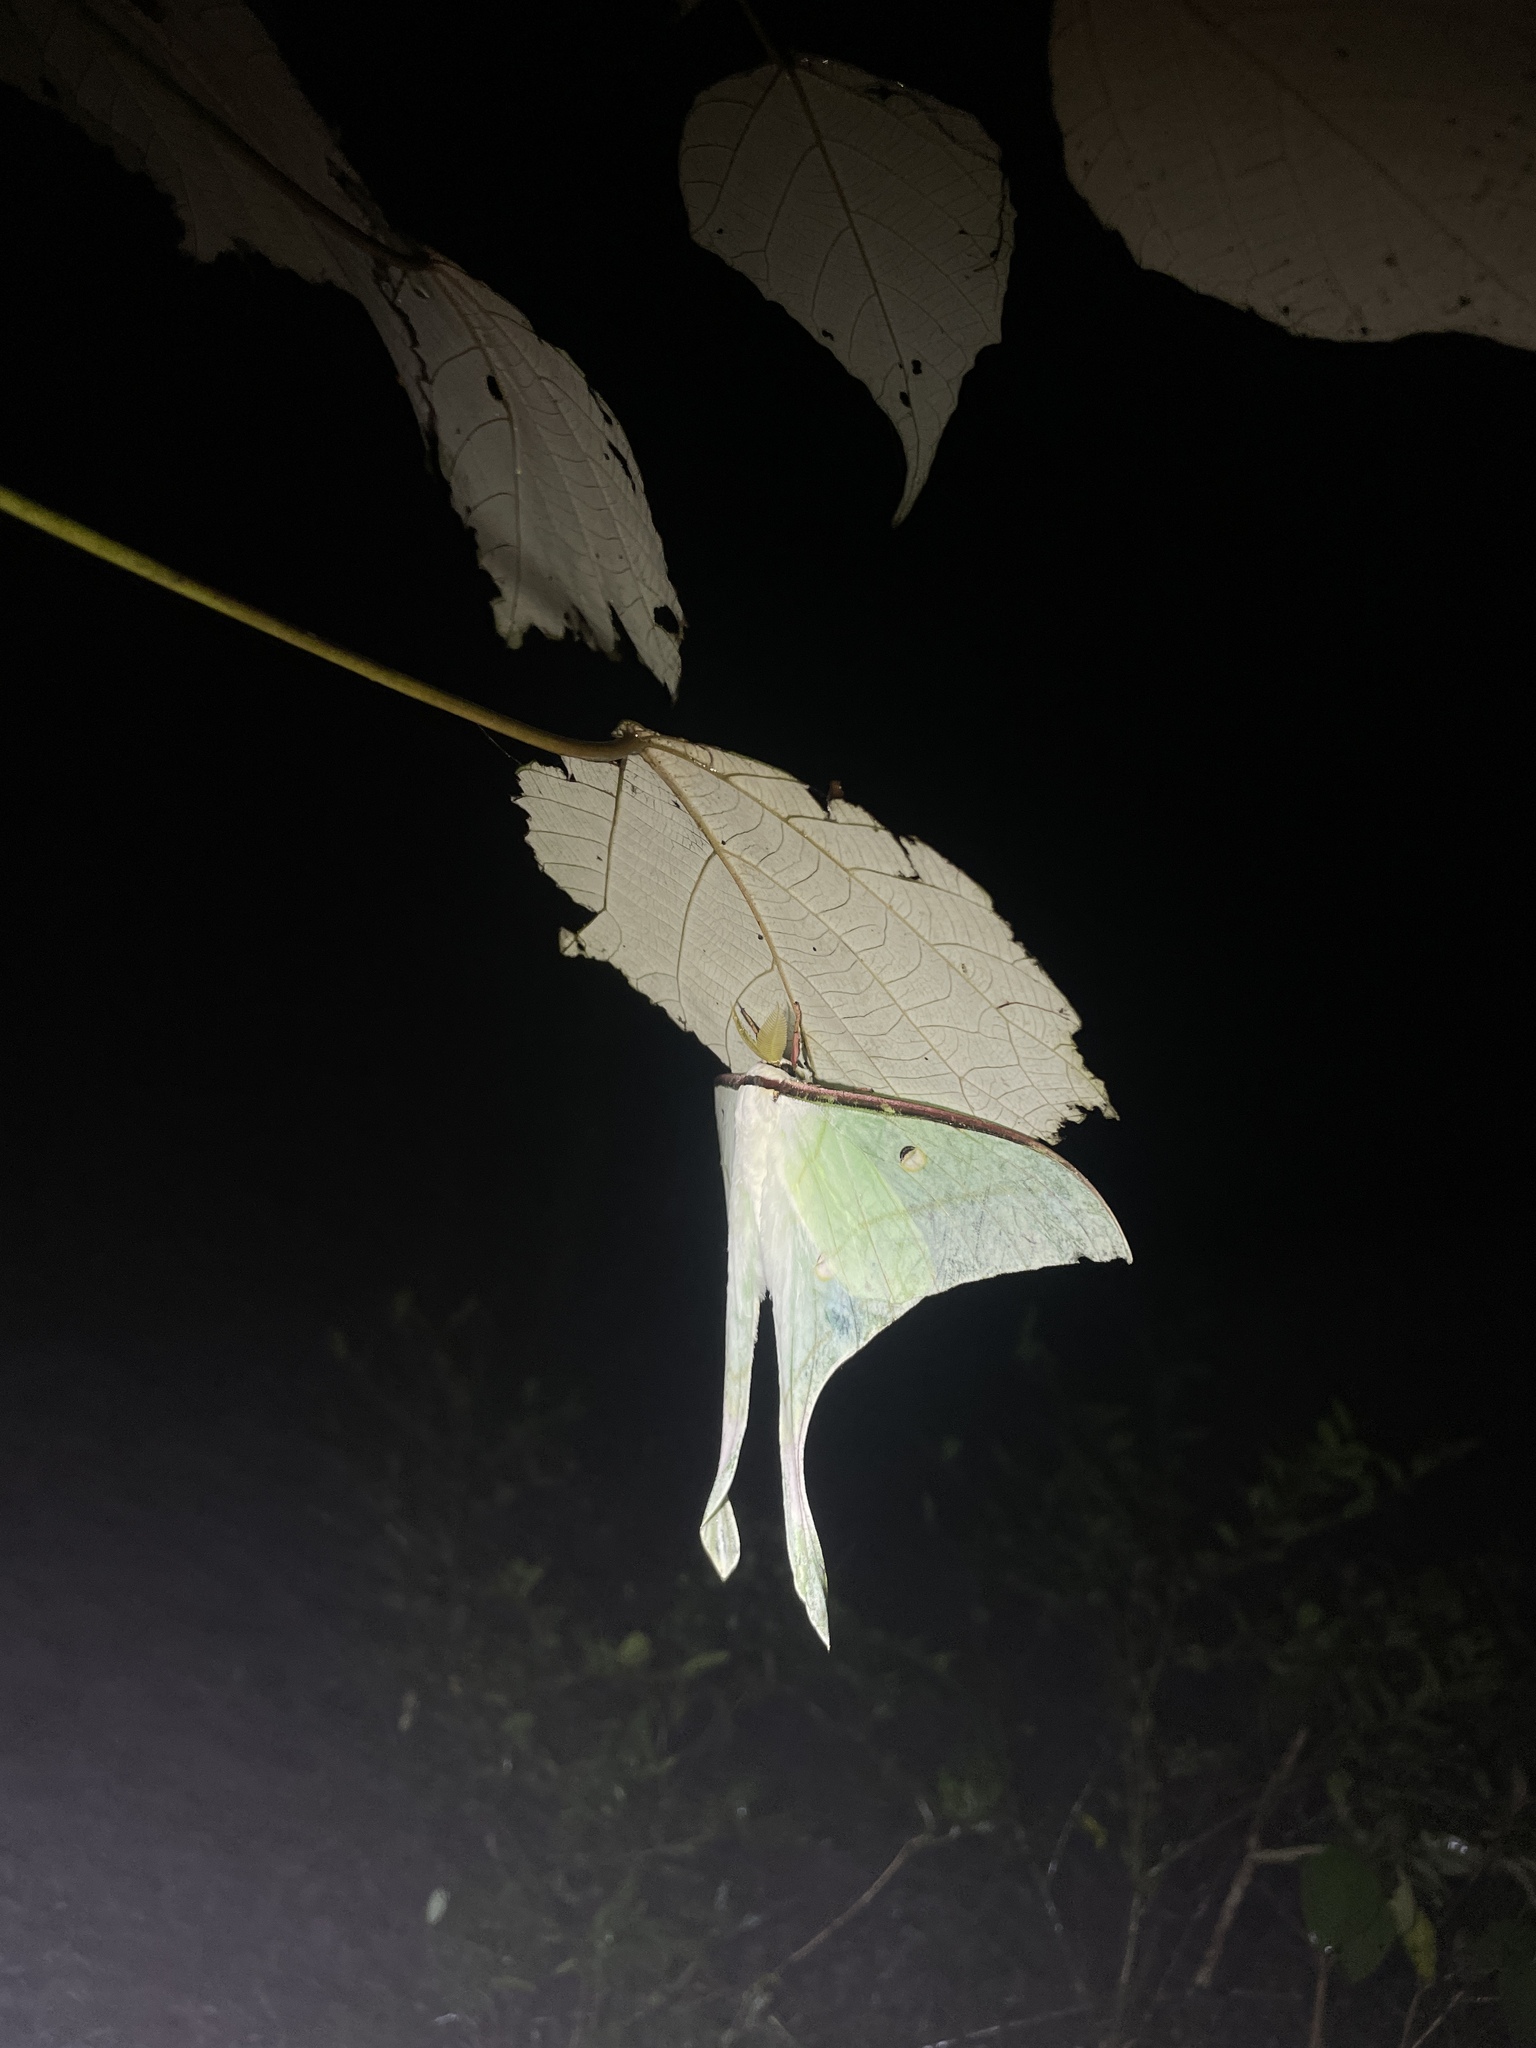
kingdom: Animalia
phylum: Arthropoda
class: Insecta
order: Lepidoptera
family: Saturniidae
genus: Actias
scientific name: Actias ningpoana
